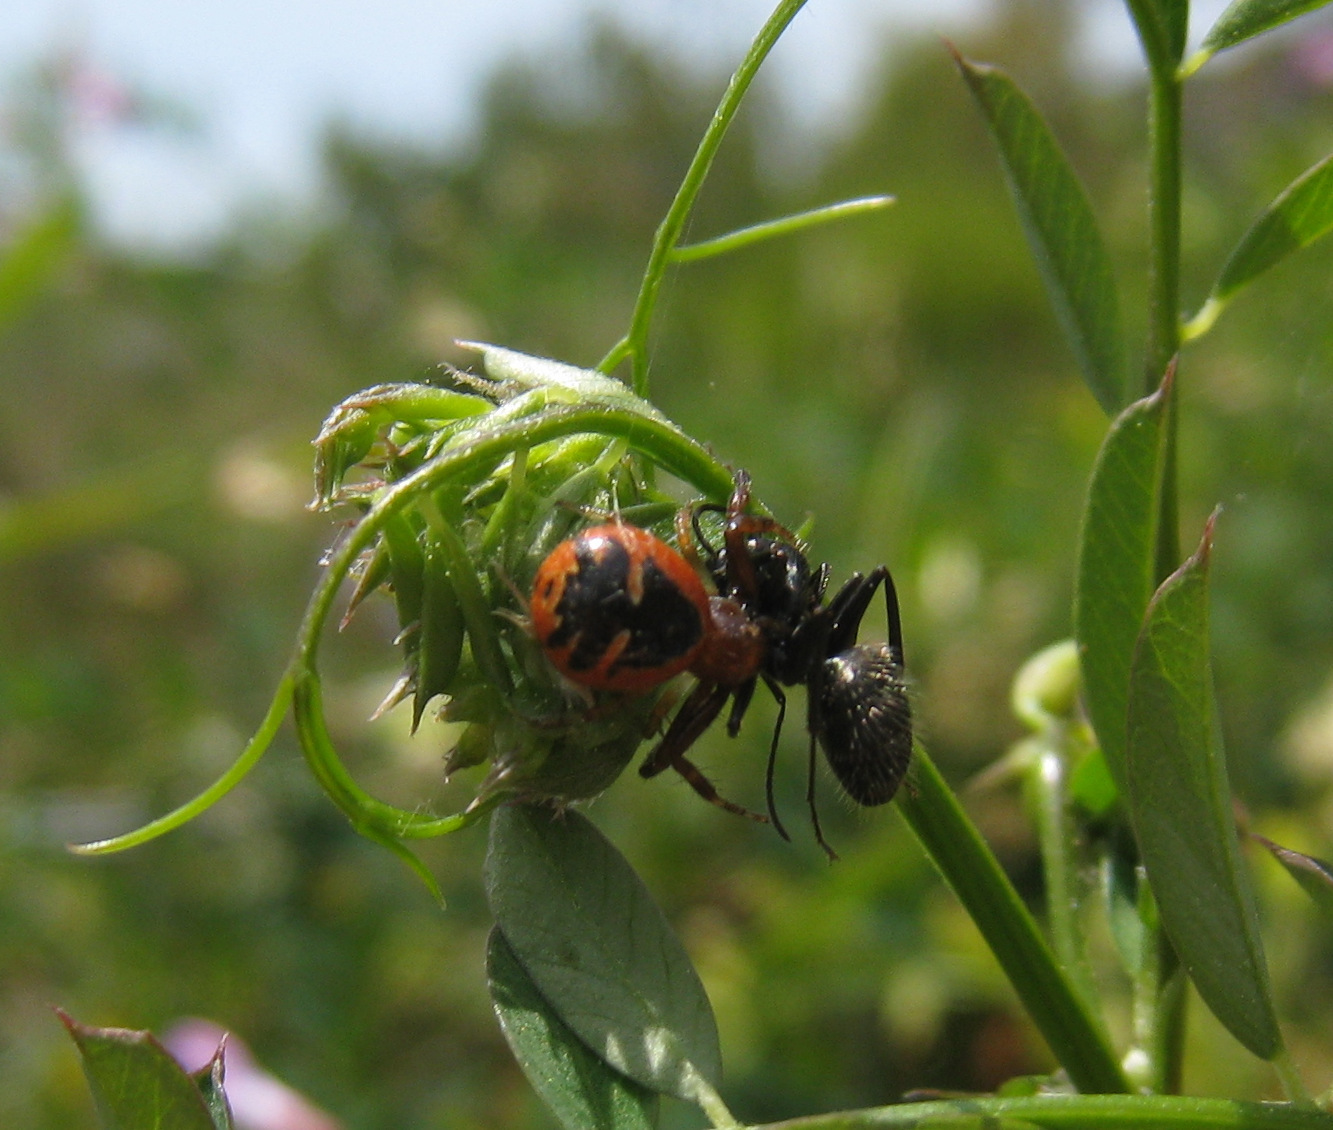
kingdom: Animalia
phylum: Arthropoda
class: Arachnida
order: Araneae
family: Thomisidae
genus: Synema
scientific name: Synema globosum
